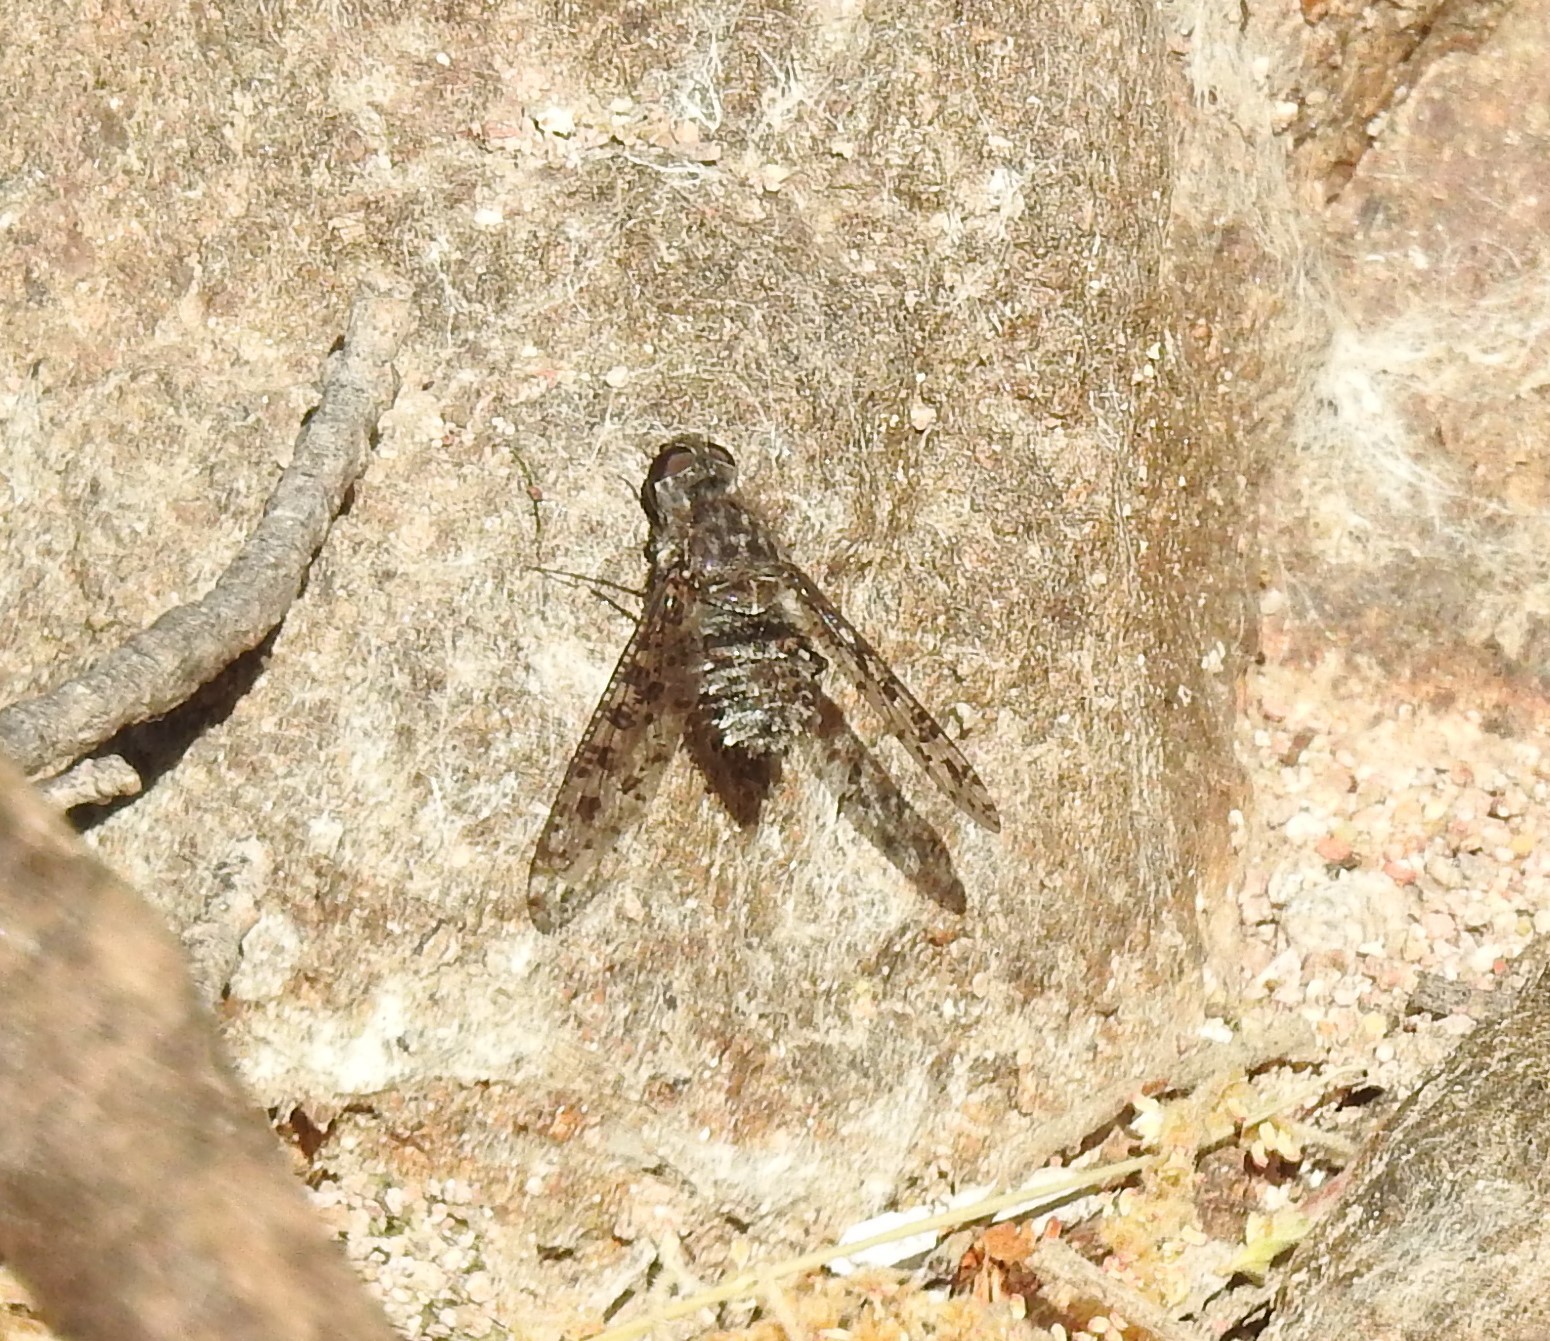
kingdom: Animalia
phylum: Arthropoda
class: Insecta
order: Diptera
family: Bombyliidae
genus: Anthrax
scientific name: Anthrax
